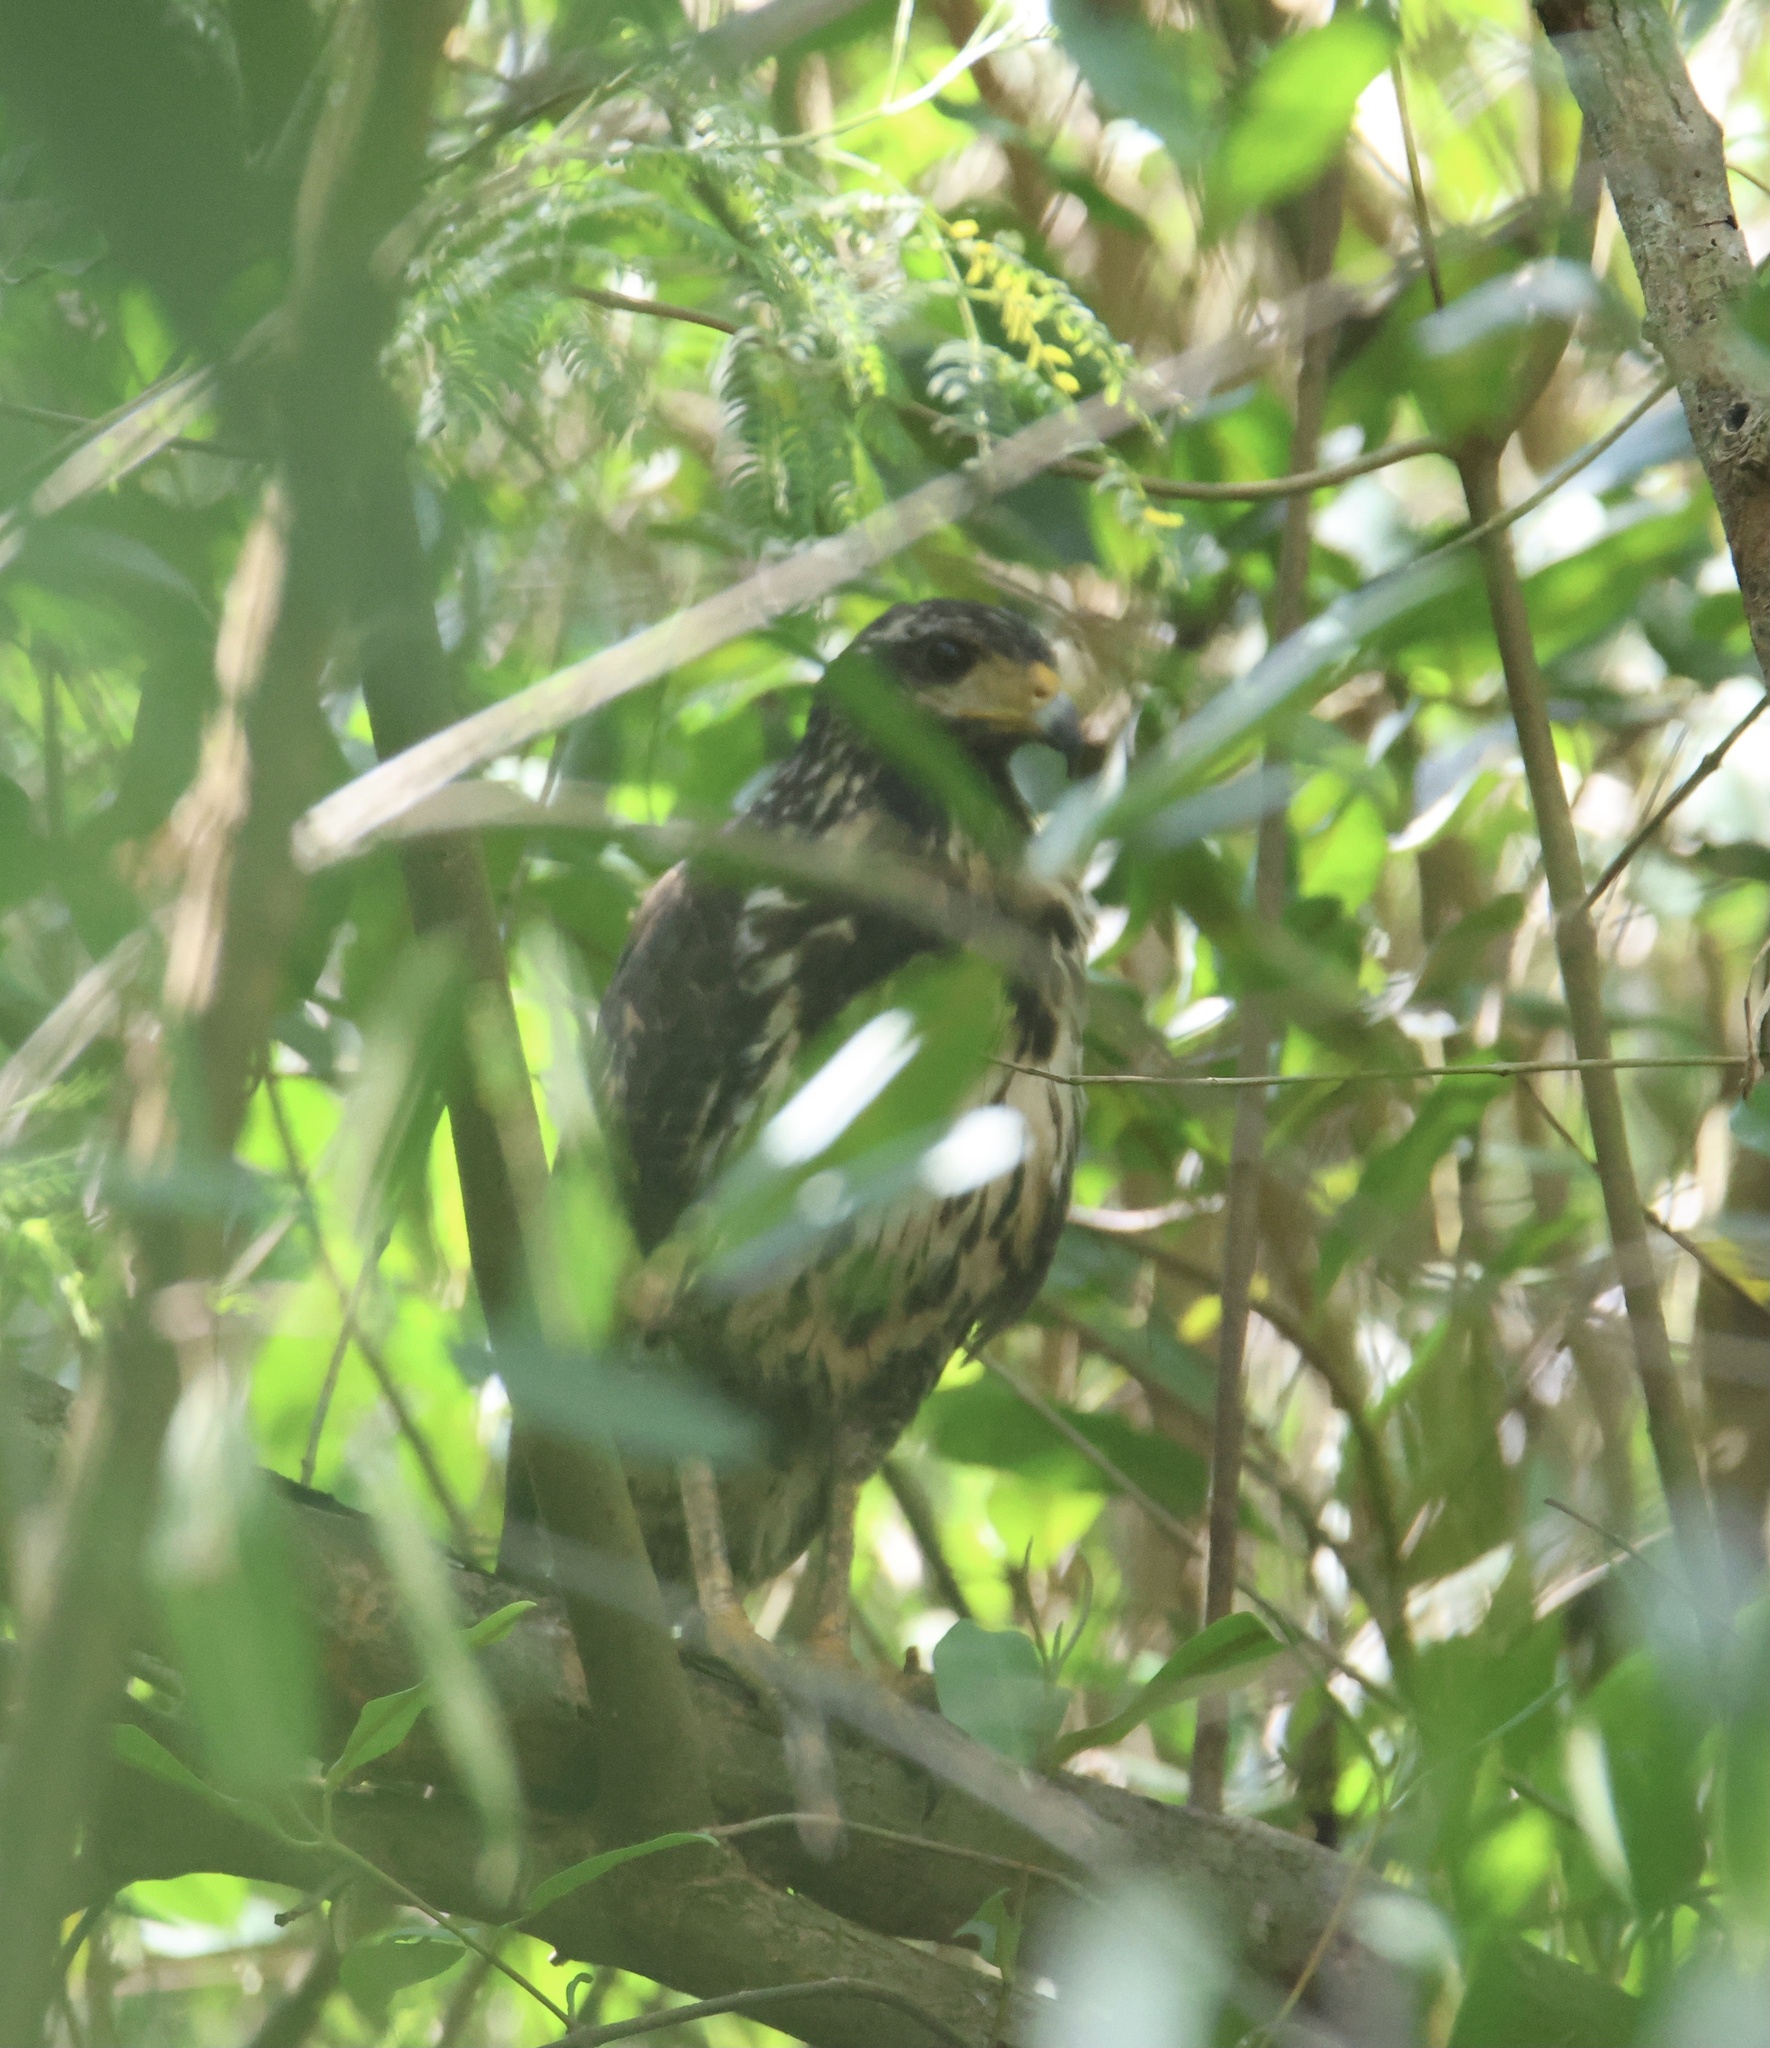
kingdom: Animalia
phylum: Chordata
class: Aves
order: Accipitriformes
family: Accipitridae
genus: Buteogallus
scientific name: Buteogallus anthracinus
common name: Common black hawk
